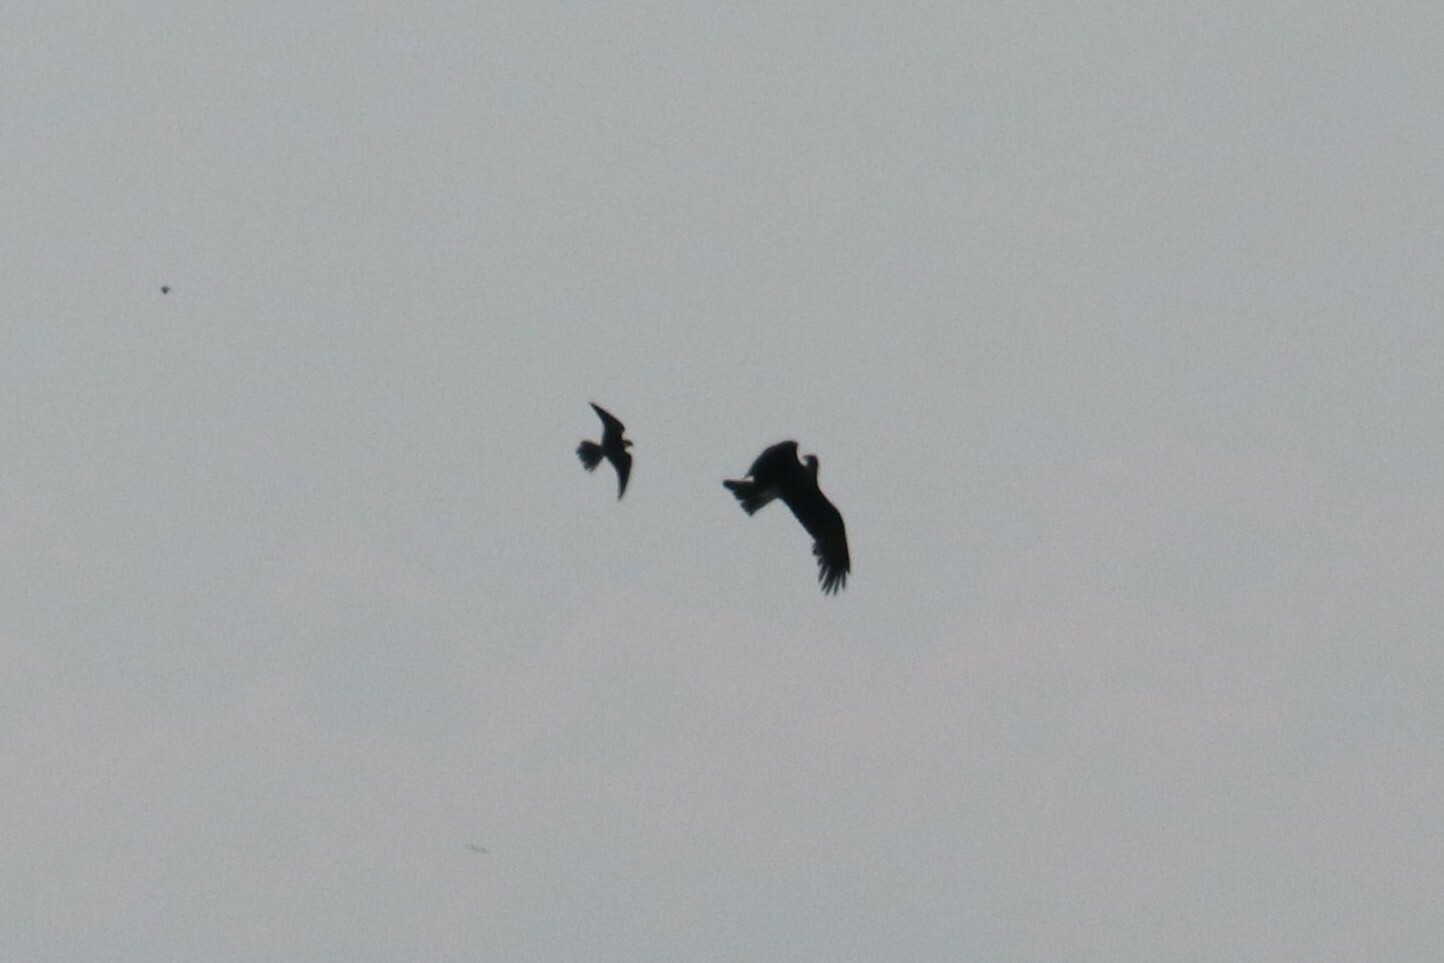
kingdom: Animalia
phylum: Chordata
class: Aves
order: Accipitriformes
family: Accipitridae
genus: Milvus
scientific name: Milvus migrans
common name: Black kite
